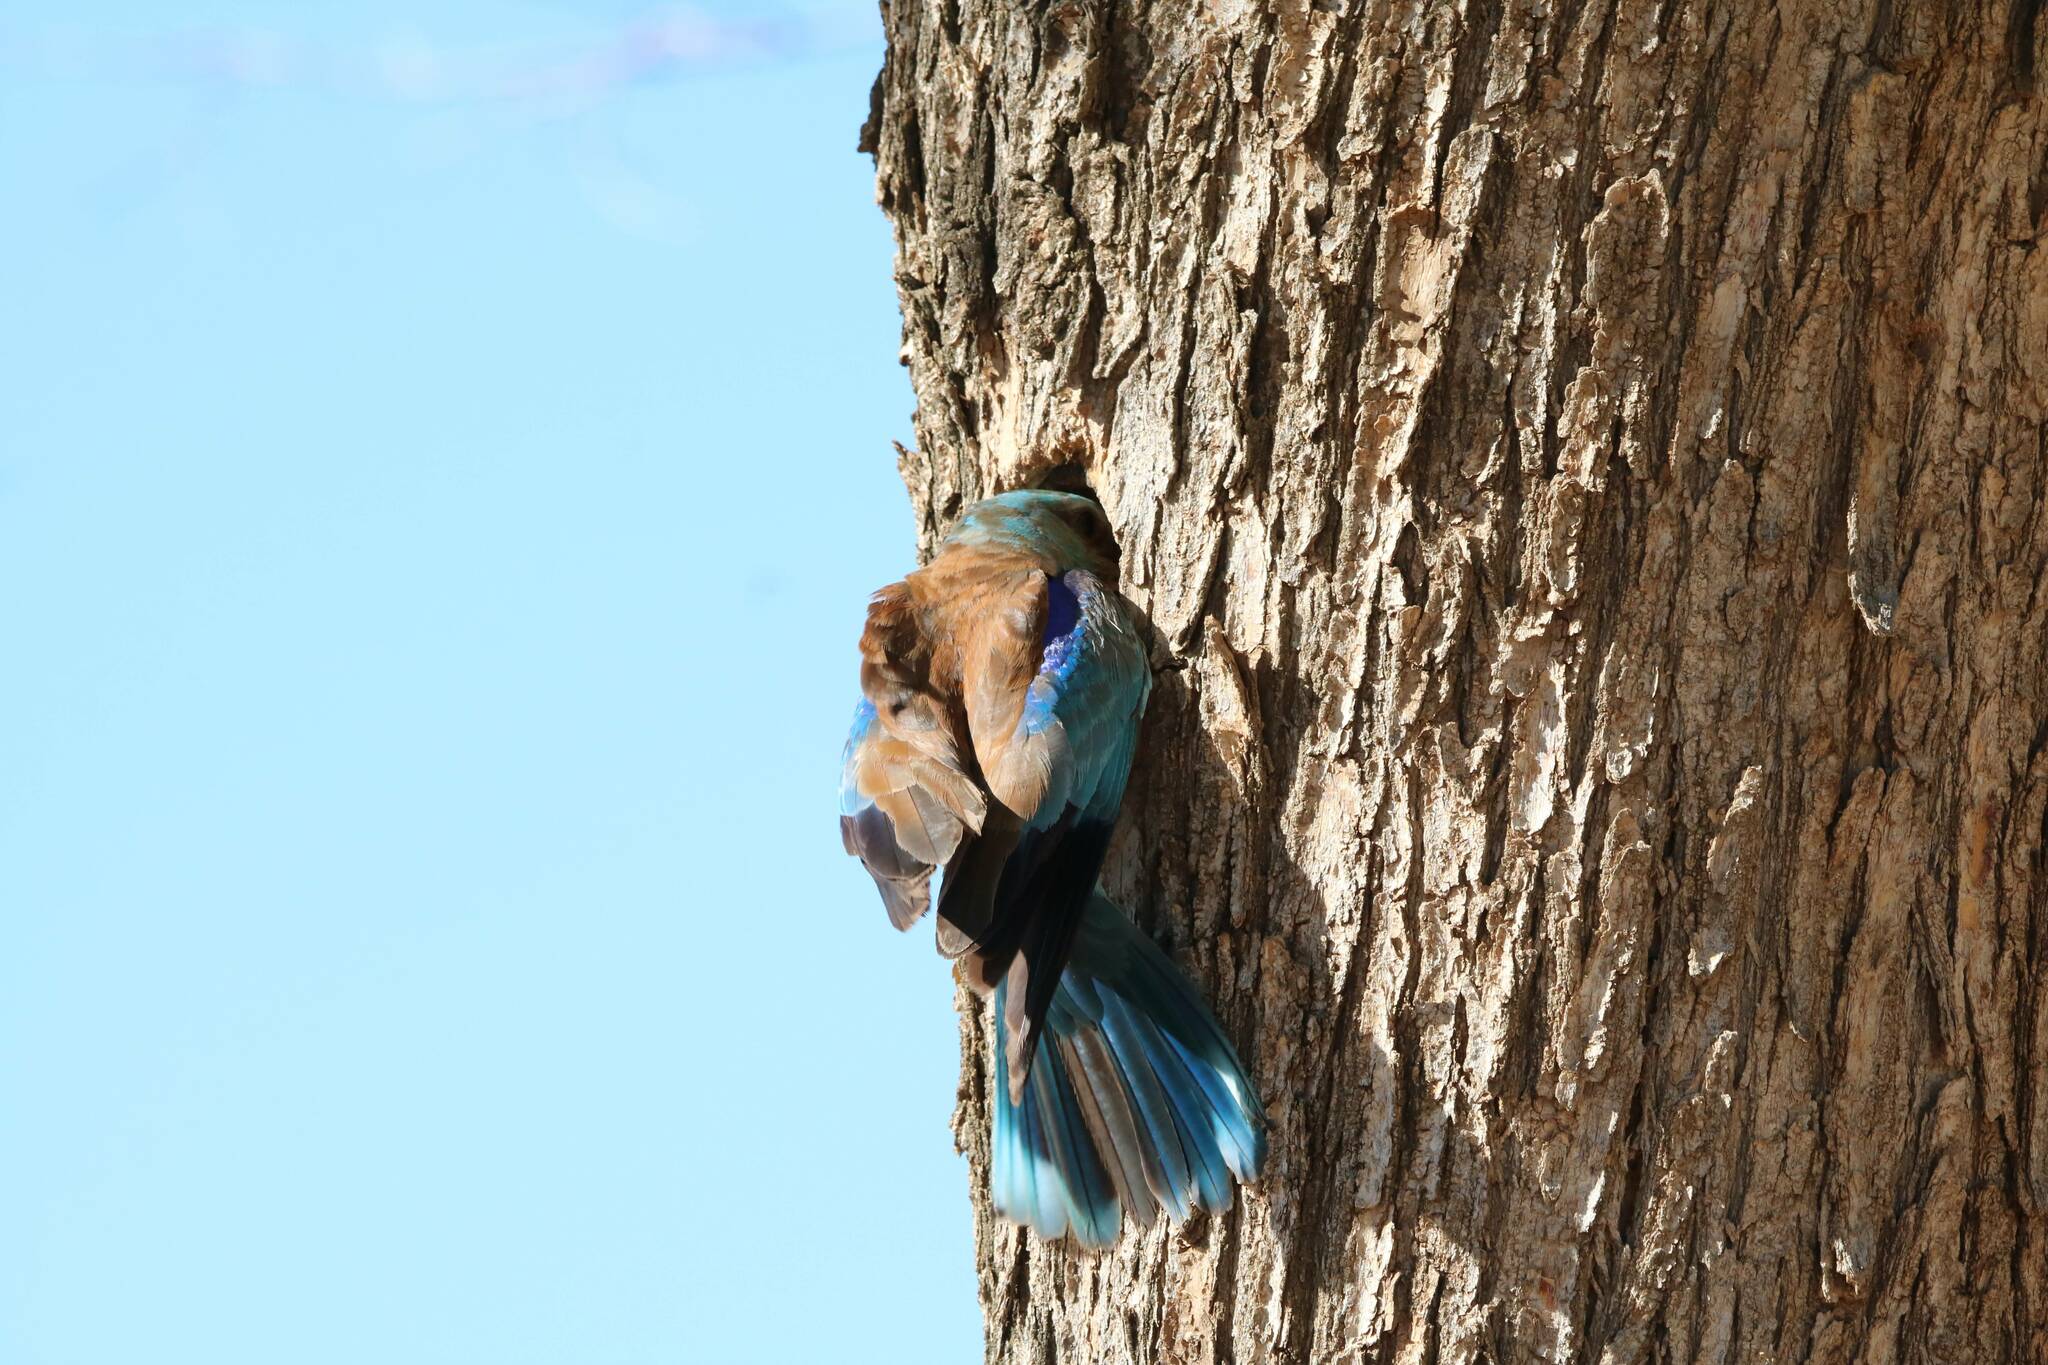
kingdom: Animalia
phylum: Chordata
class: Aves
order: Coraciiformes
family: Coraciidae
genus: Coracias
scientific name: Coracias garrulus
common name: European roller
